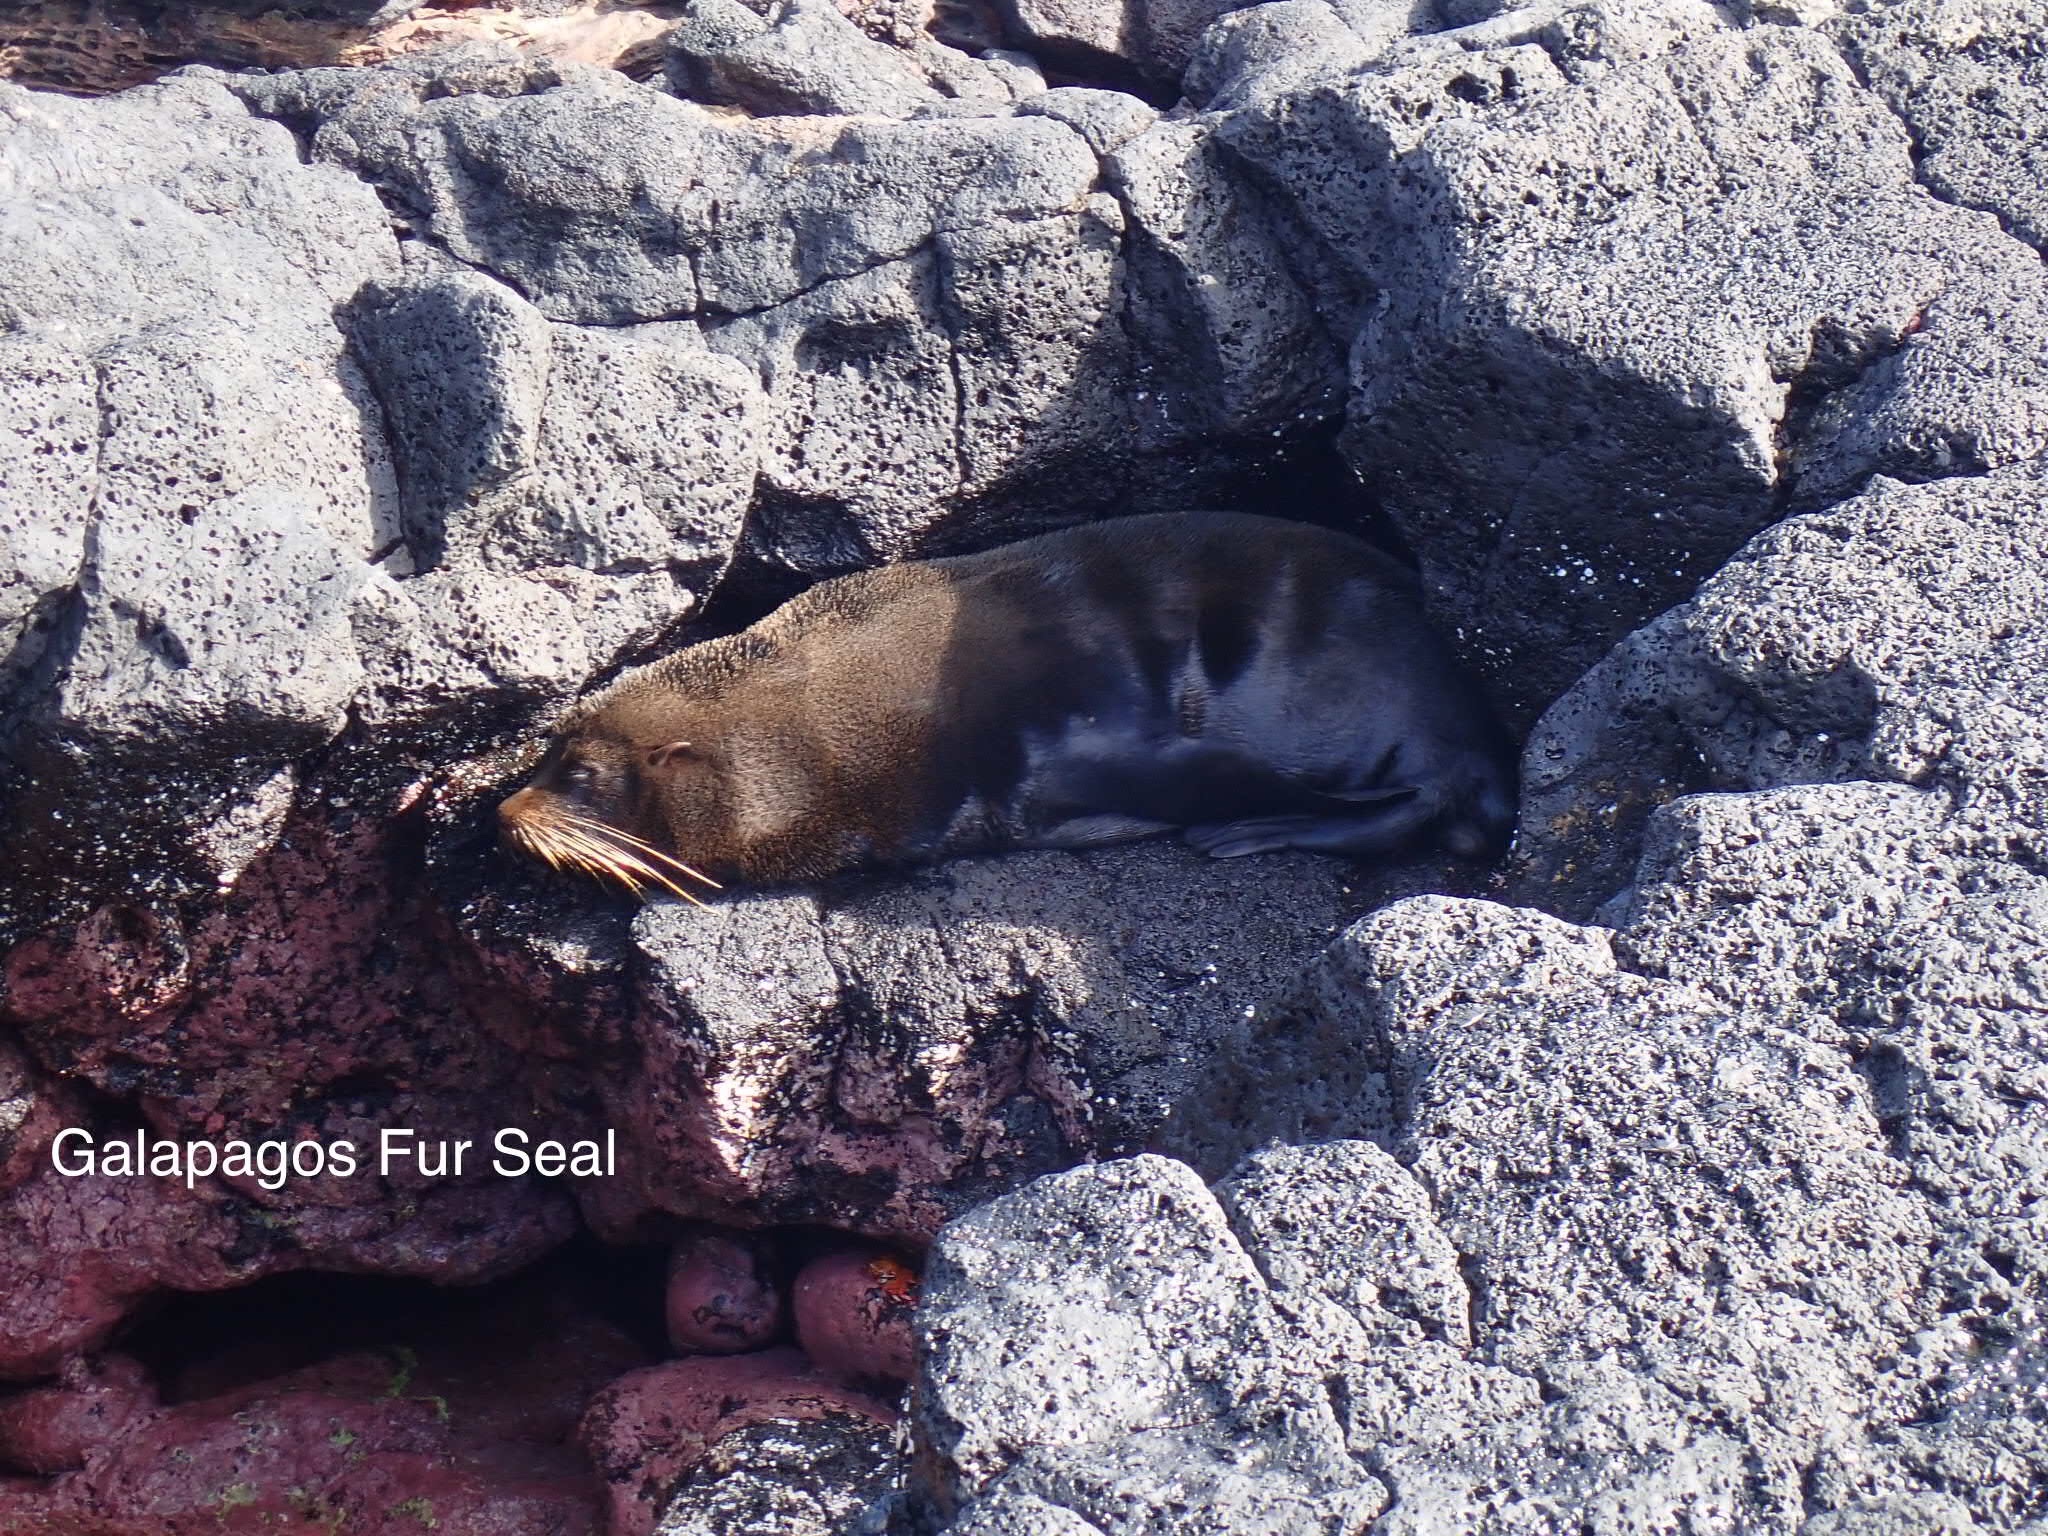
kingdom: Animalia
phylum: Chordata
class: Mammalia
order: Carnivora
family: Otariidae
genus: Arctocephalus
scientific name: Arctocephalus galapagoensis
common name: Galapagos fur seal
